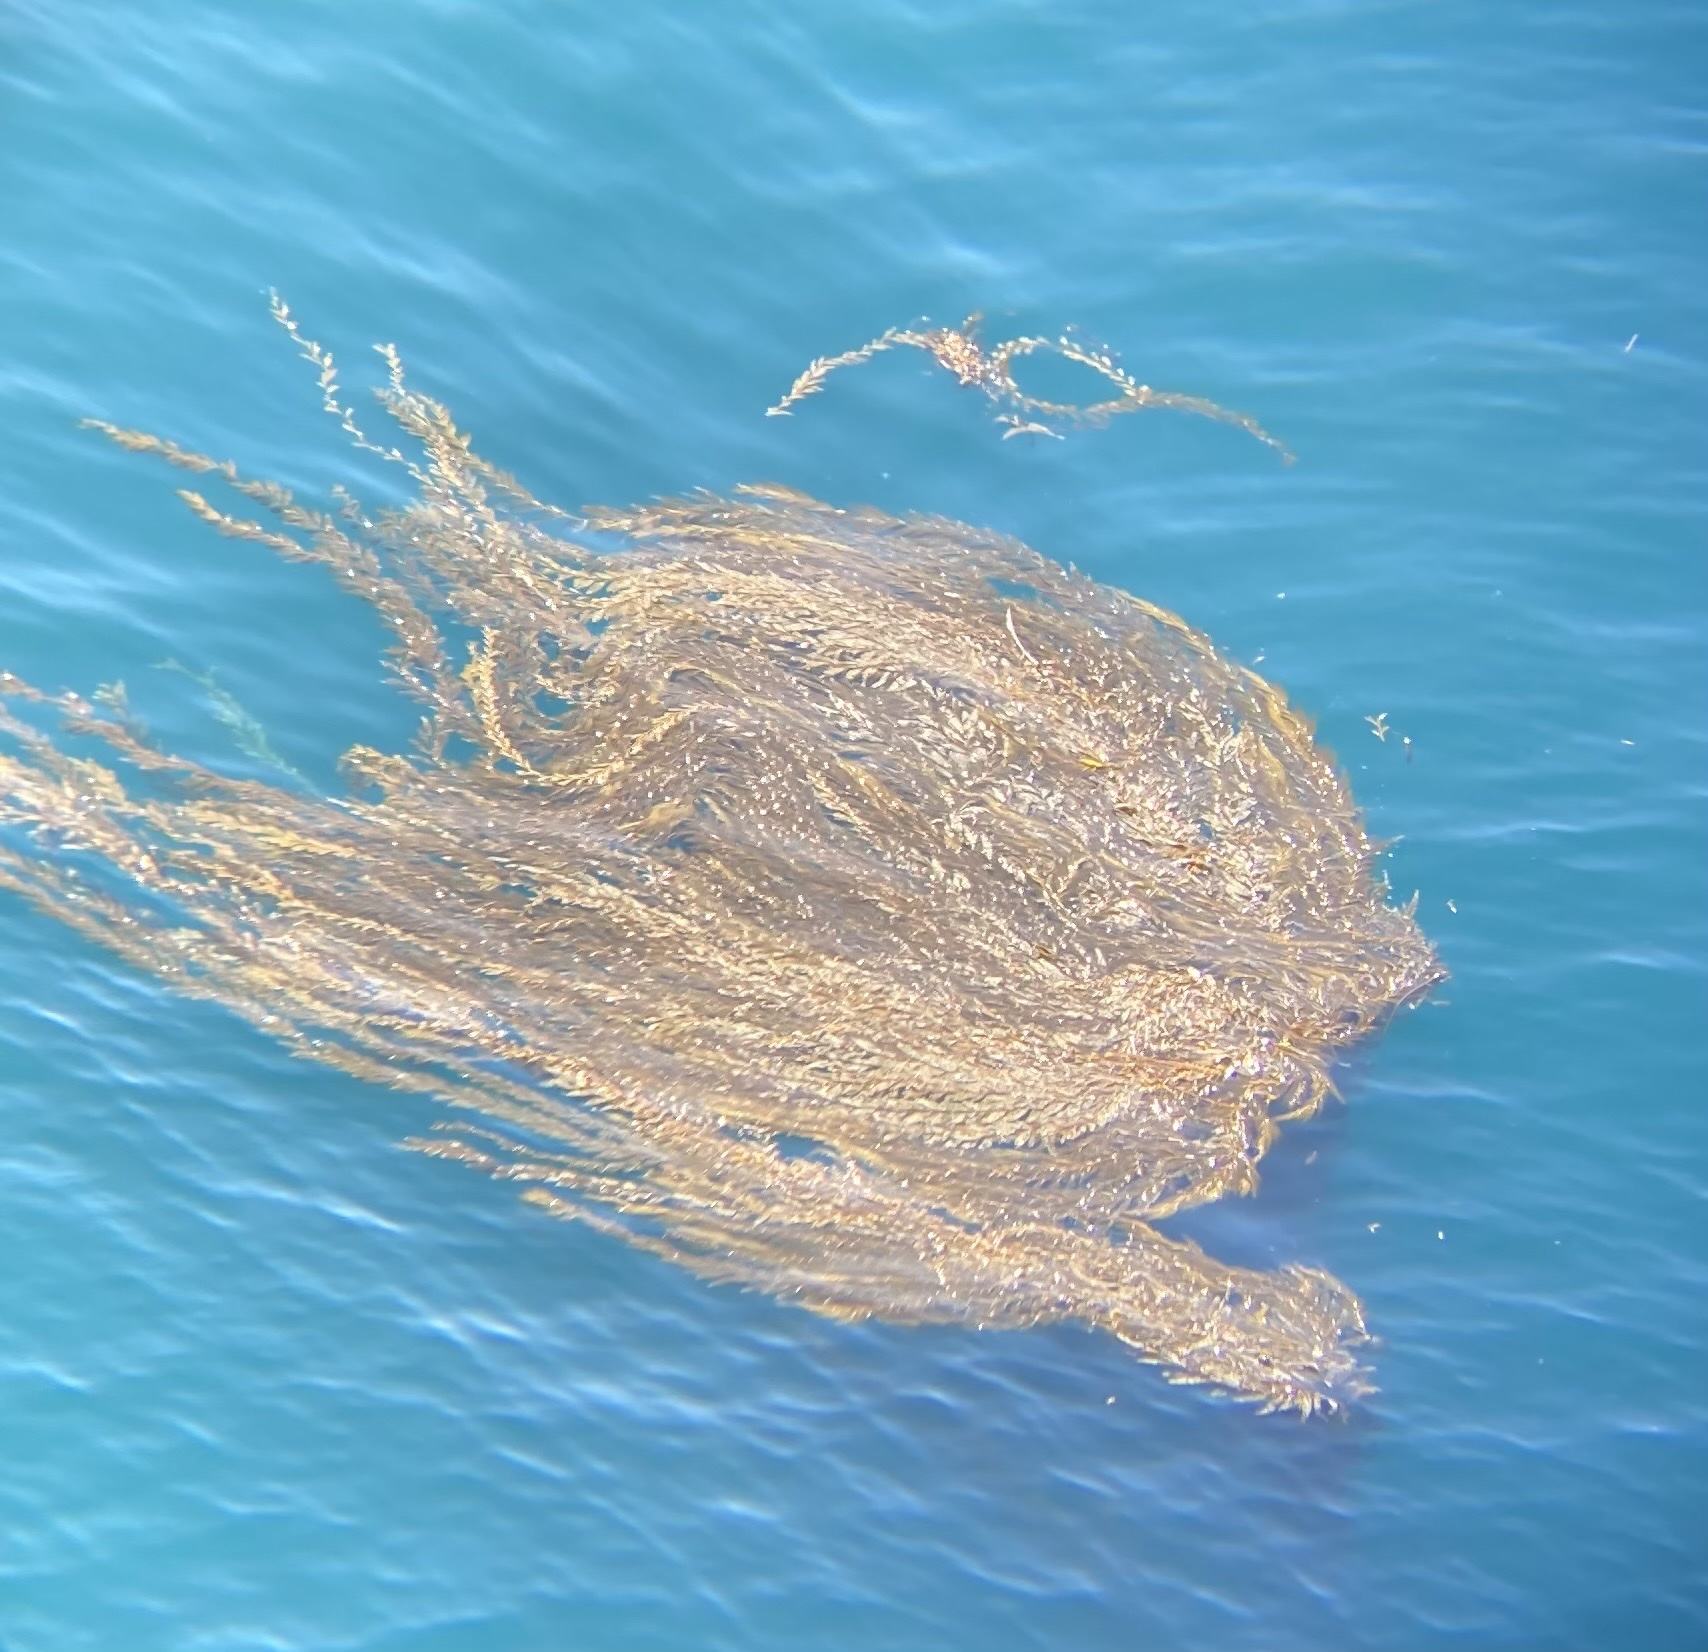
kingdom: Chromista
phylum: Ochrophyta
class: Phaeophyceae
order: Laminariales
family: Laminariaceae
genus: Macrocystis
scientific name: Macrocystis pyrifera
